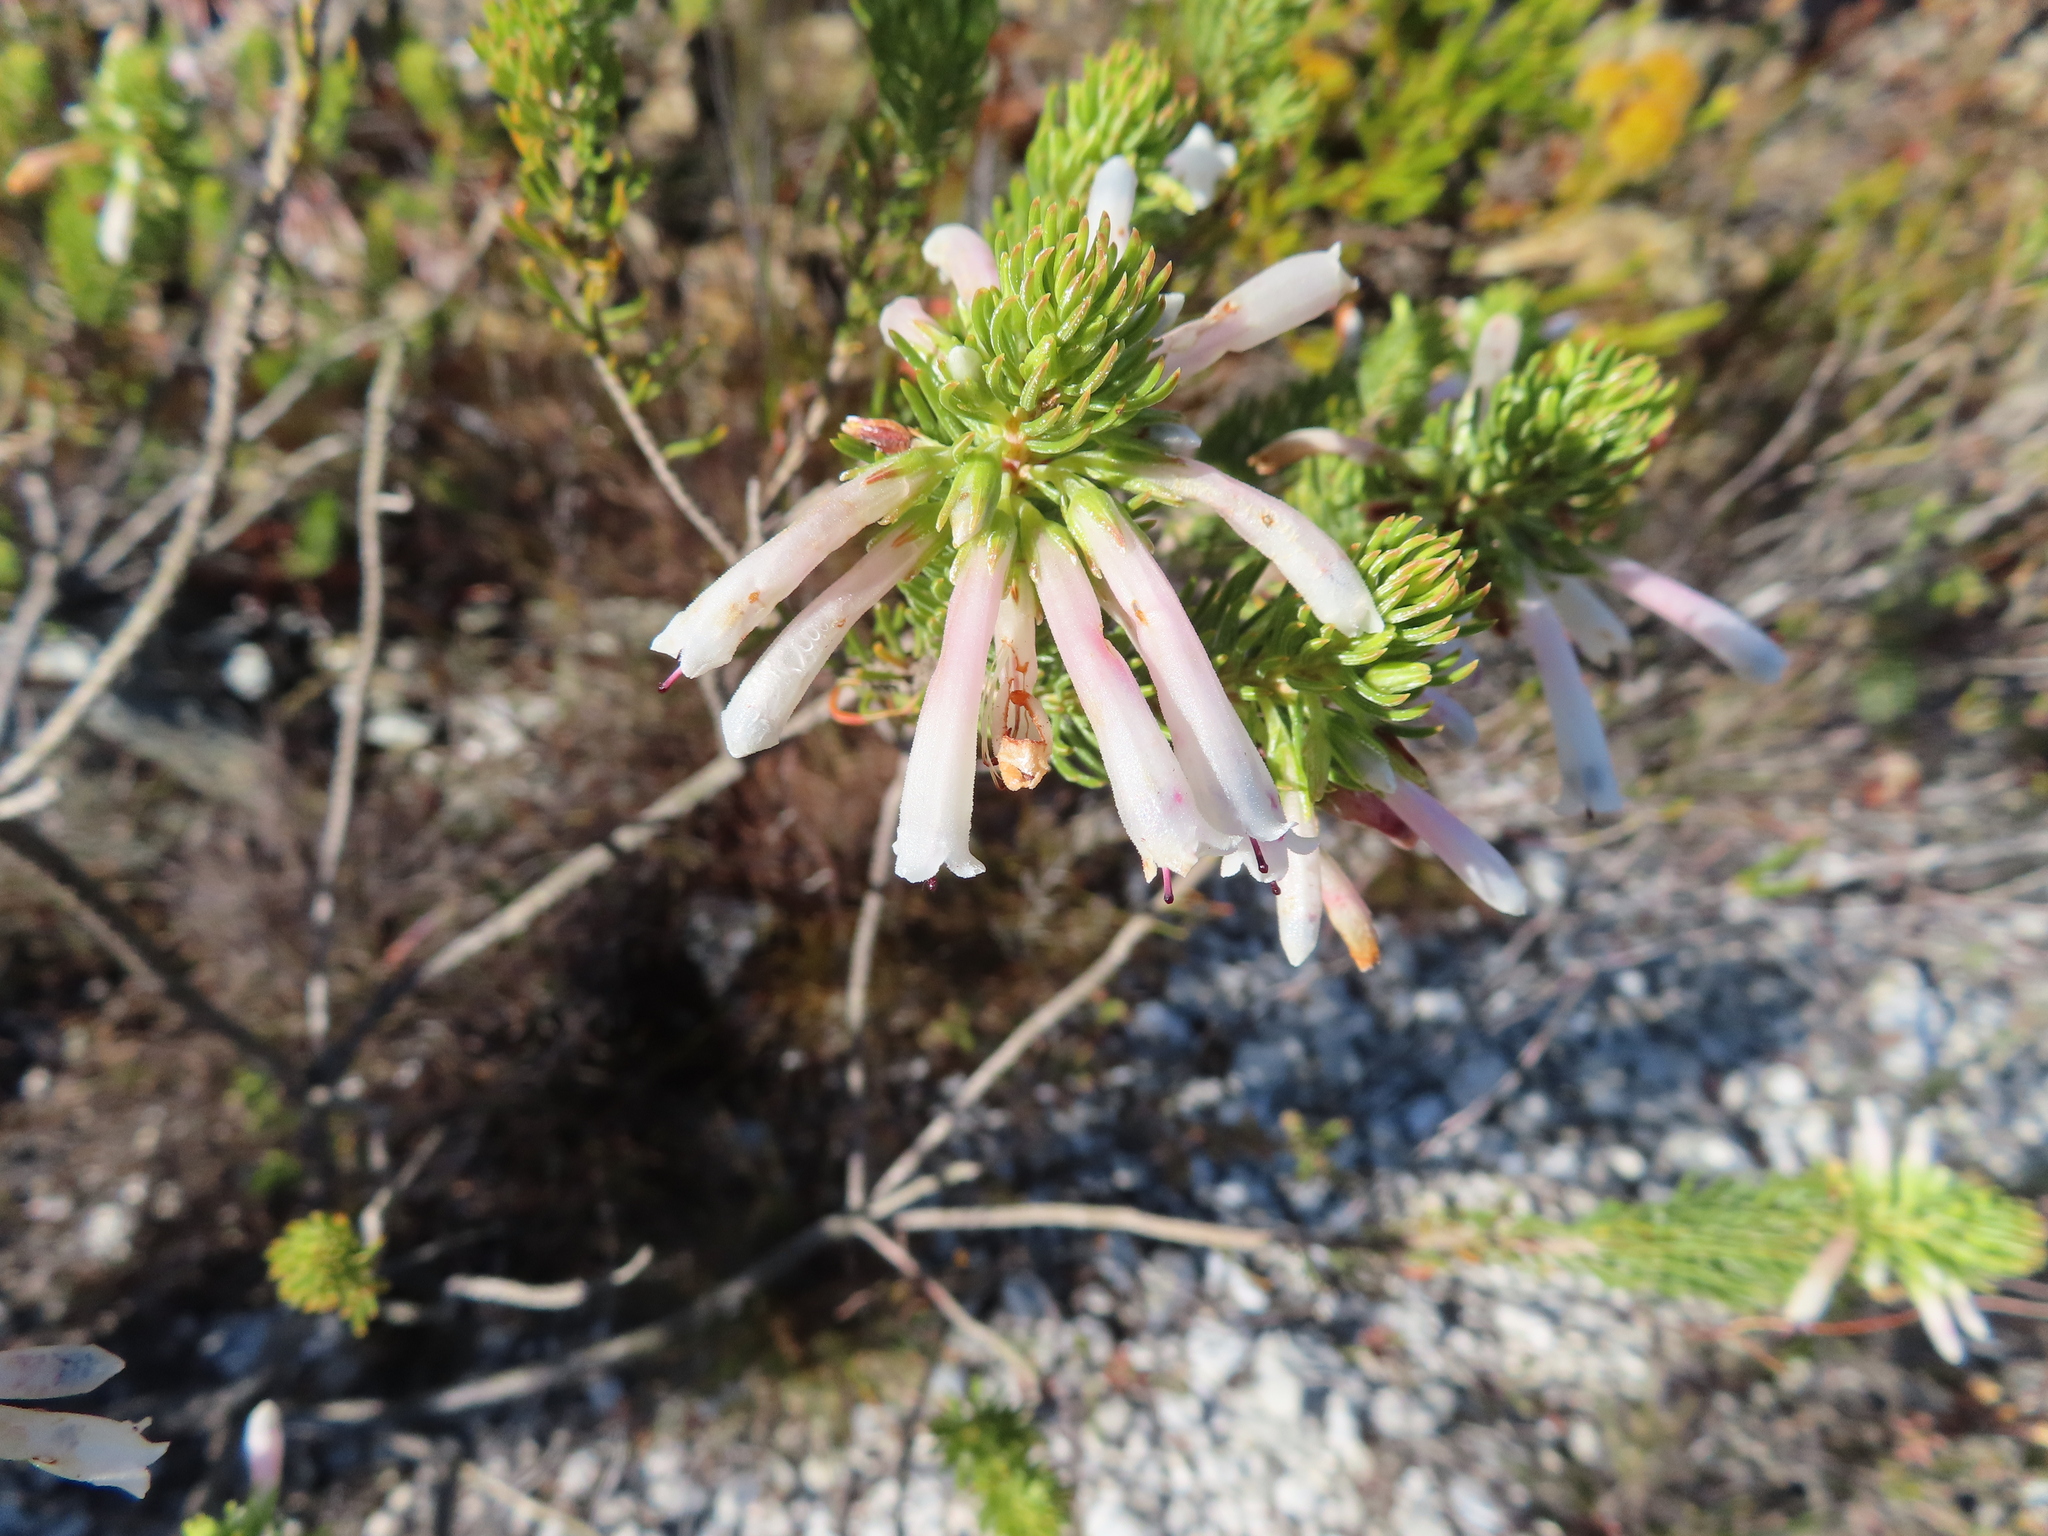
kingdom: Plantae
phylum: Tracheophyta
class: Magnoliopsida
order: Ericales
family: Ericaceae
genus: Erica
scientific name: Erica thomae
